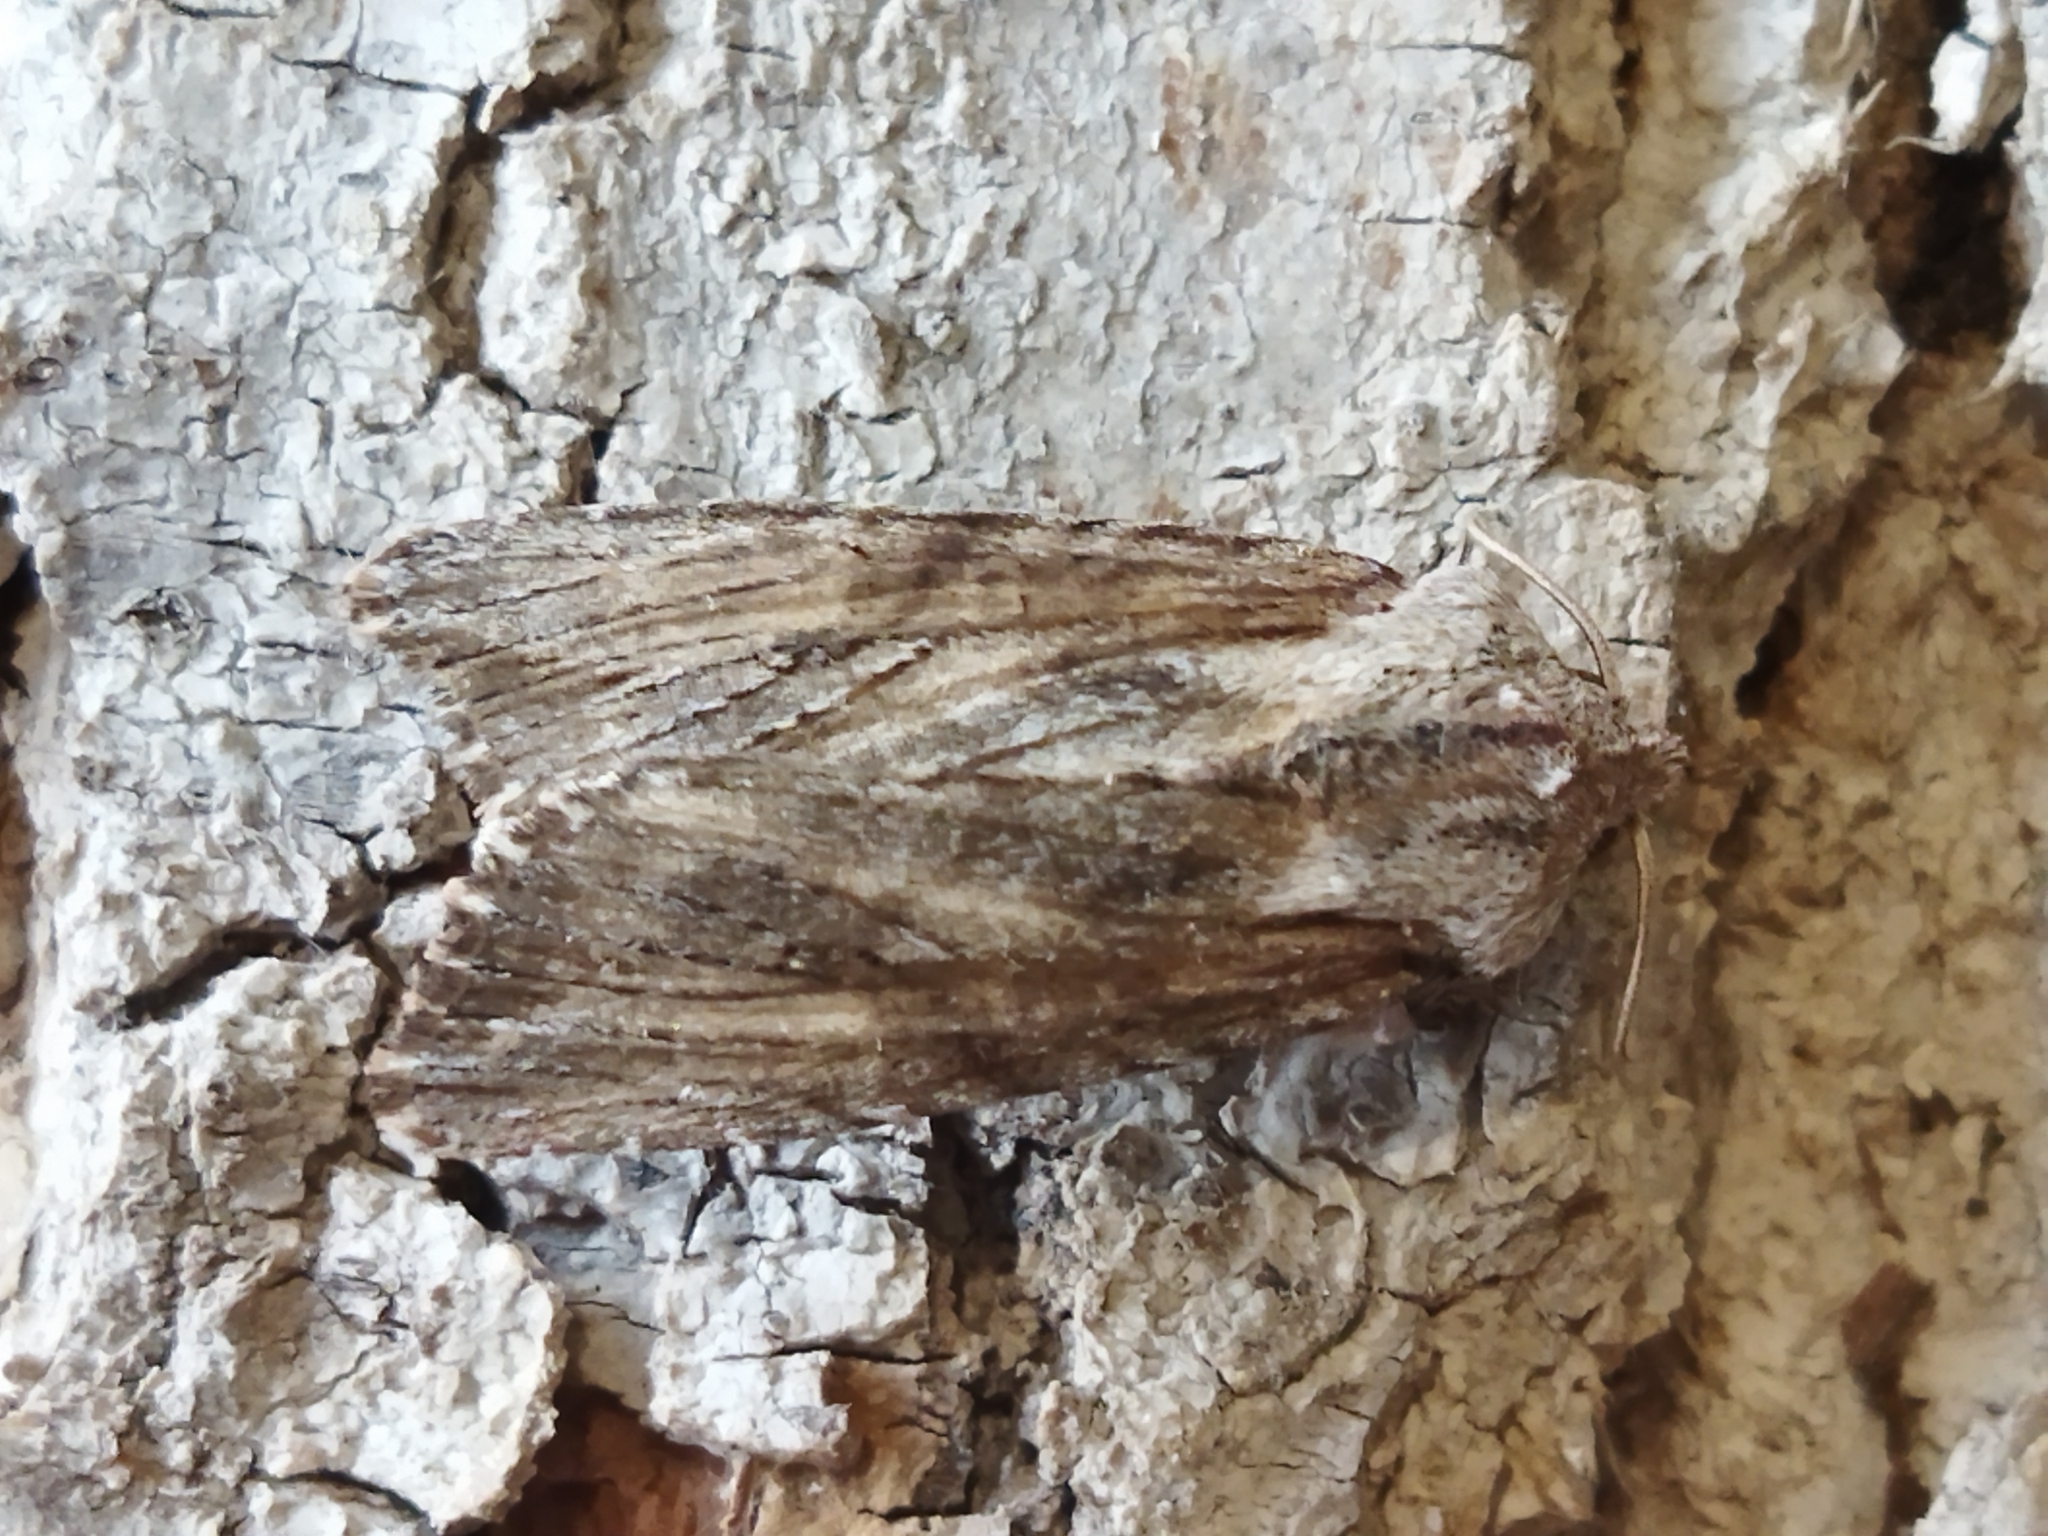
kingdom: Animalia
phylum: Arthropoda
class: Insecta
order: Lepidoptera
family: Noctuidae
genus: Egira
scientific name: Egira
